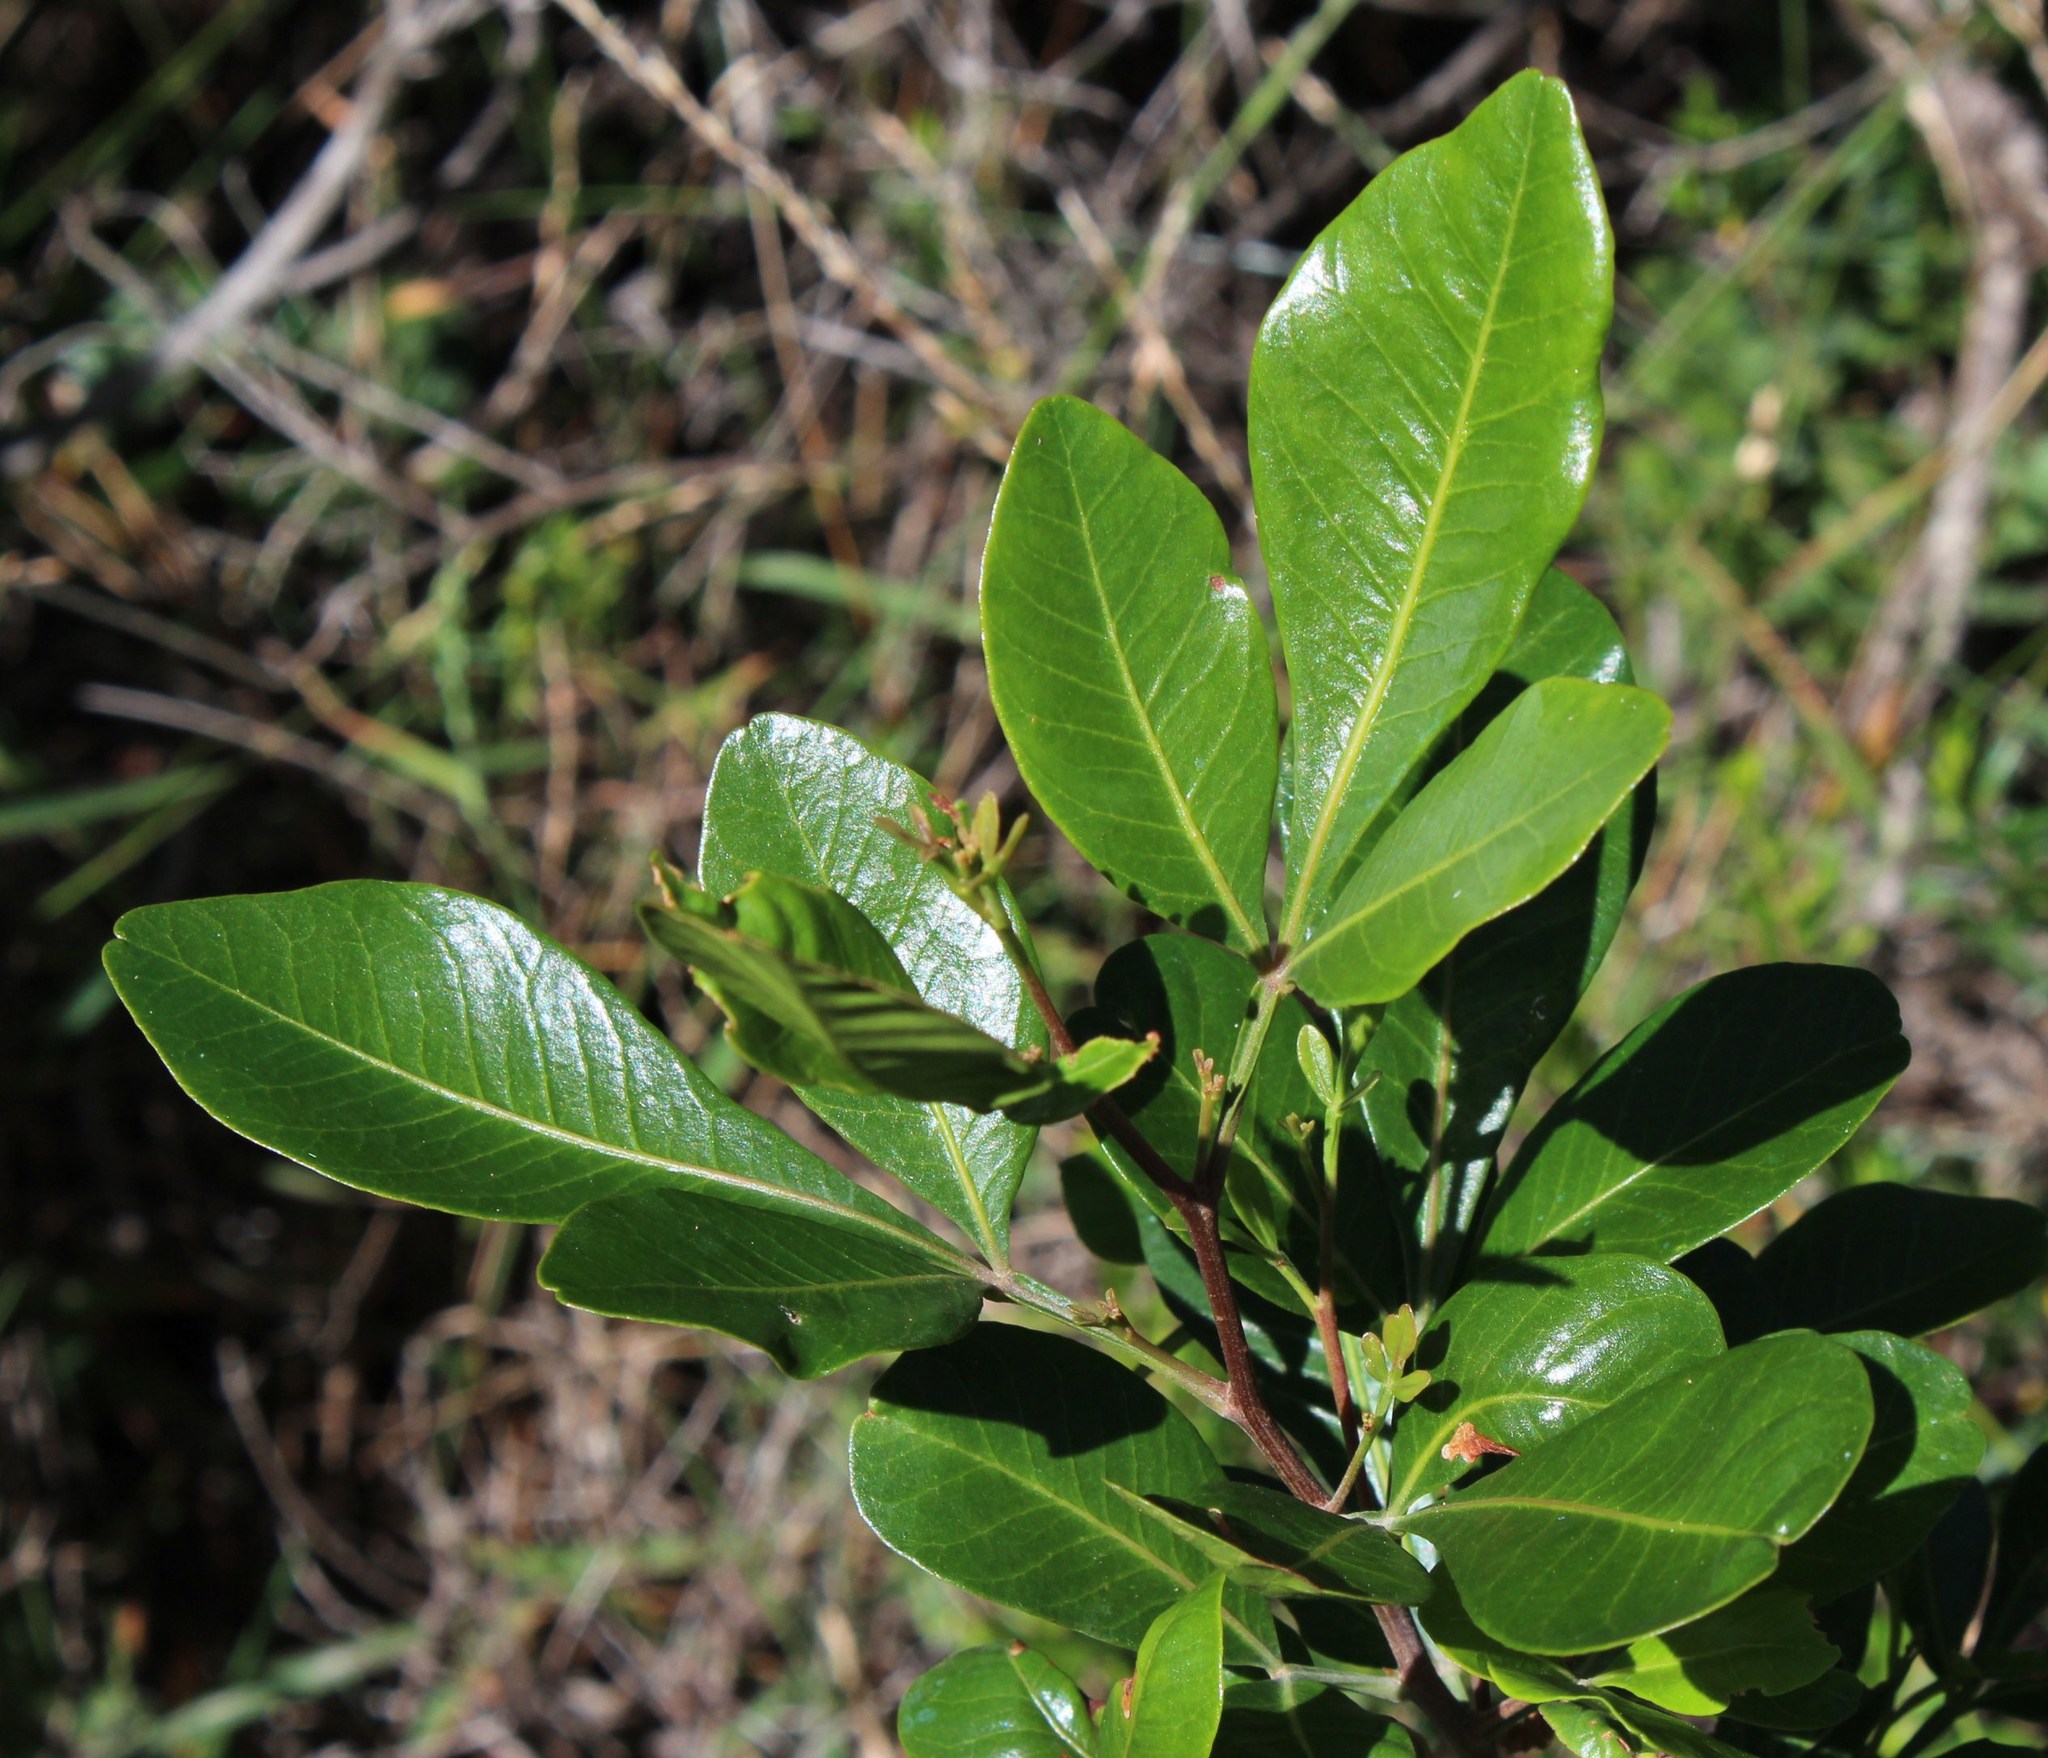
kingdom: Plantae
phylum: Tracheophyta
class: Magnoliopsida
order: Sapindales
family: Anacardiaceae
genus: Searsia
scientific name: Searsia lucida
